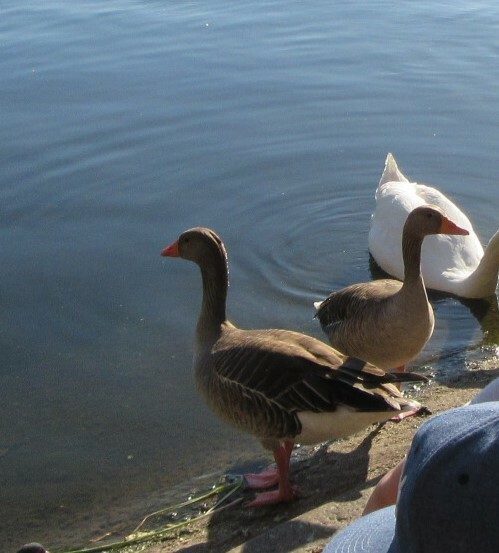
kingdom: Animalia
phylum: Chordata
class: Aves
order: Anseriformes
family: Anatidae
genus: Anser
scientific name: Anser anser
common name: Greylag goose
